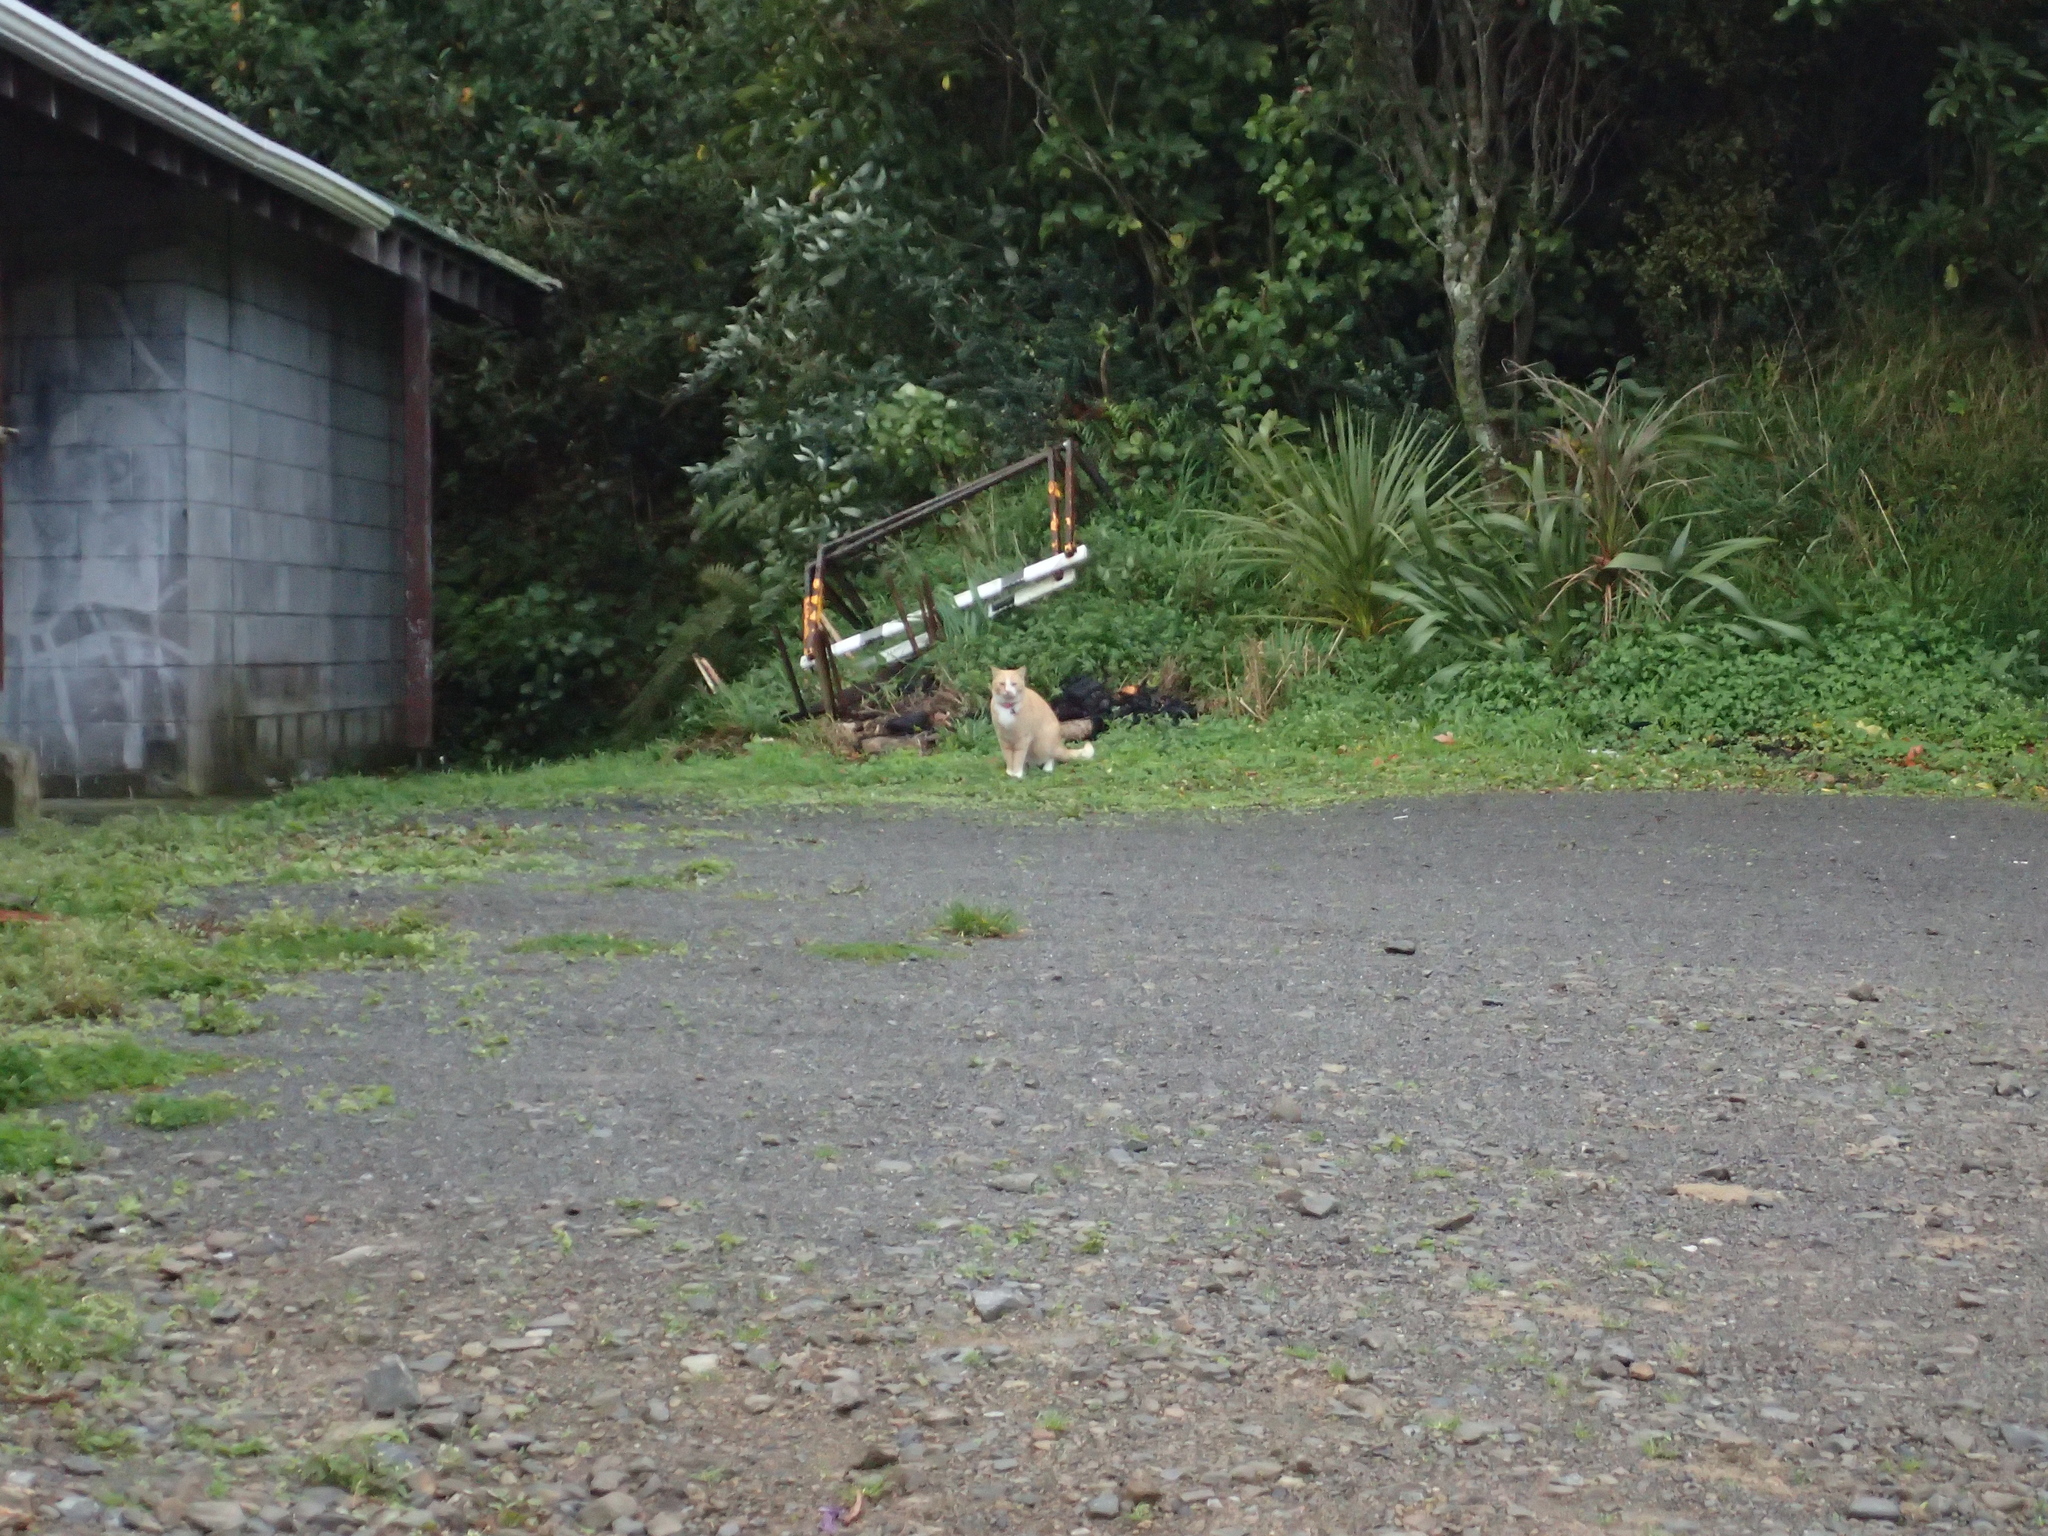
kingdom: Animalia
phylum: Chordata
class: Mammalia
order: Carnivora
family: Felidae
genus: Felis
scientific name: Felis catus
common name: Domestic cat
